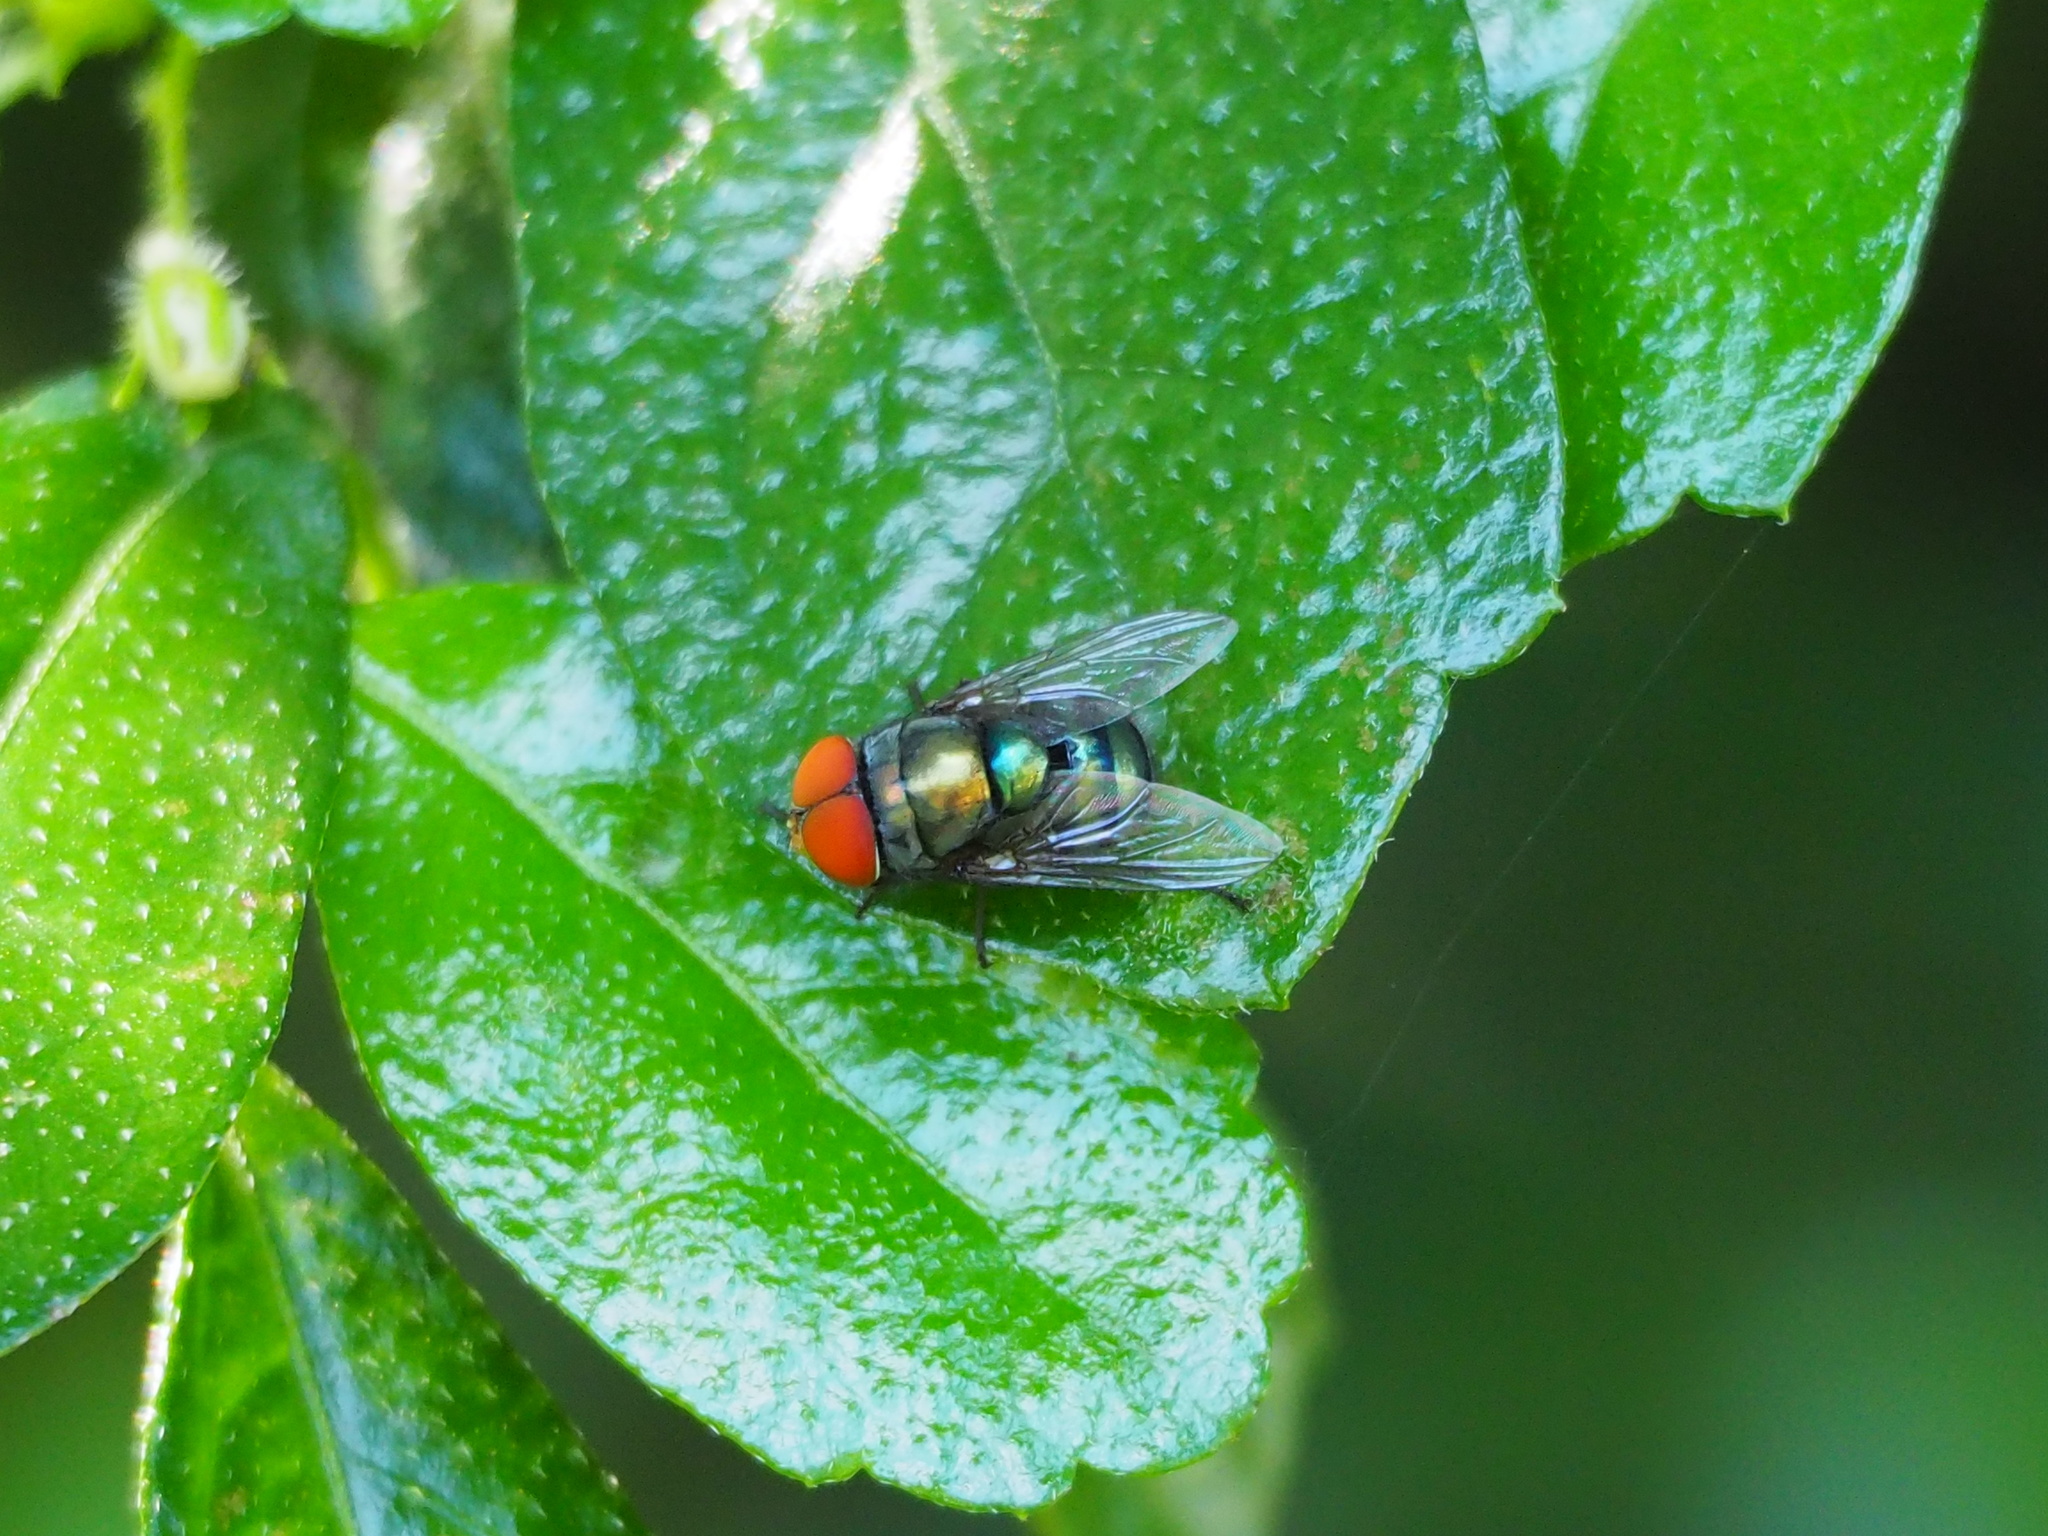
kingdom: Animalia
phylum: Arthropoda
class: Insecta
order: Diptera
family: Calliphoridae
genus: Chrysomya
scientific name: Chrysomya megacephala
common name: Blow fly
